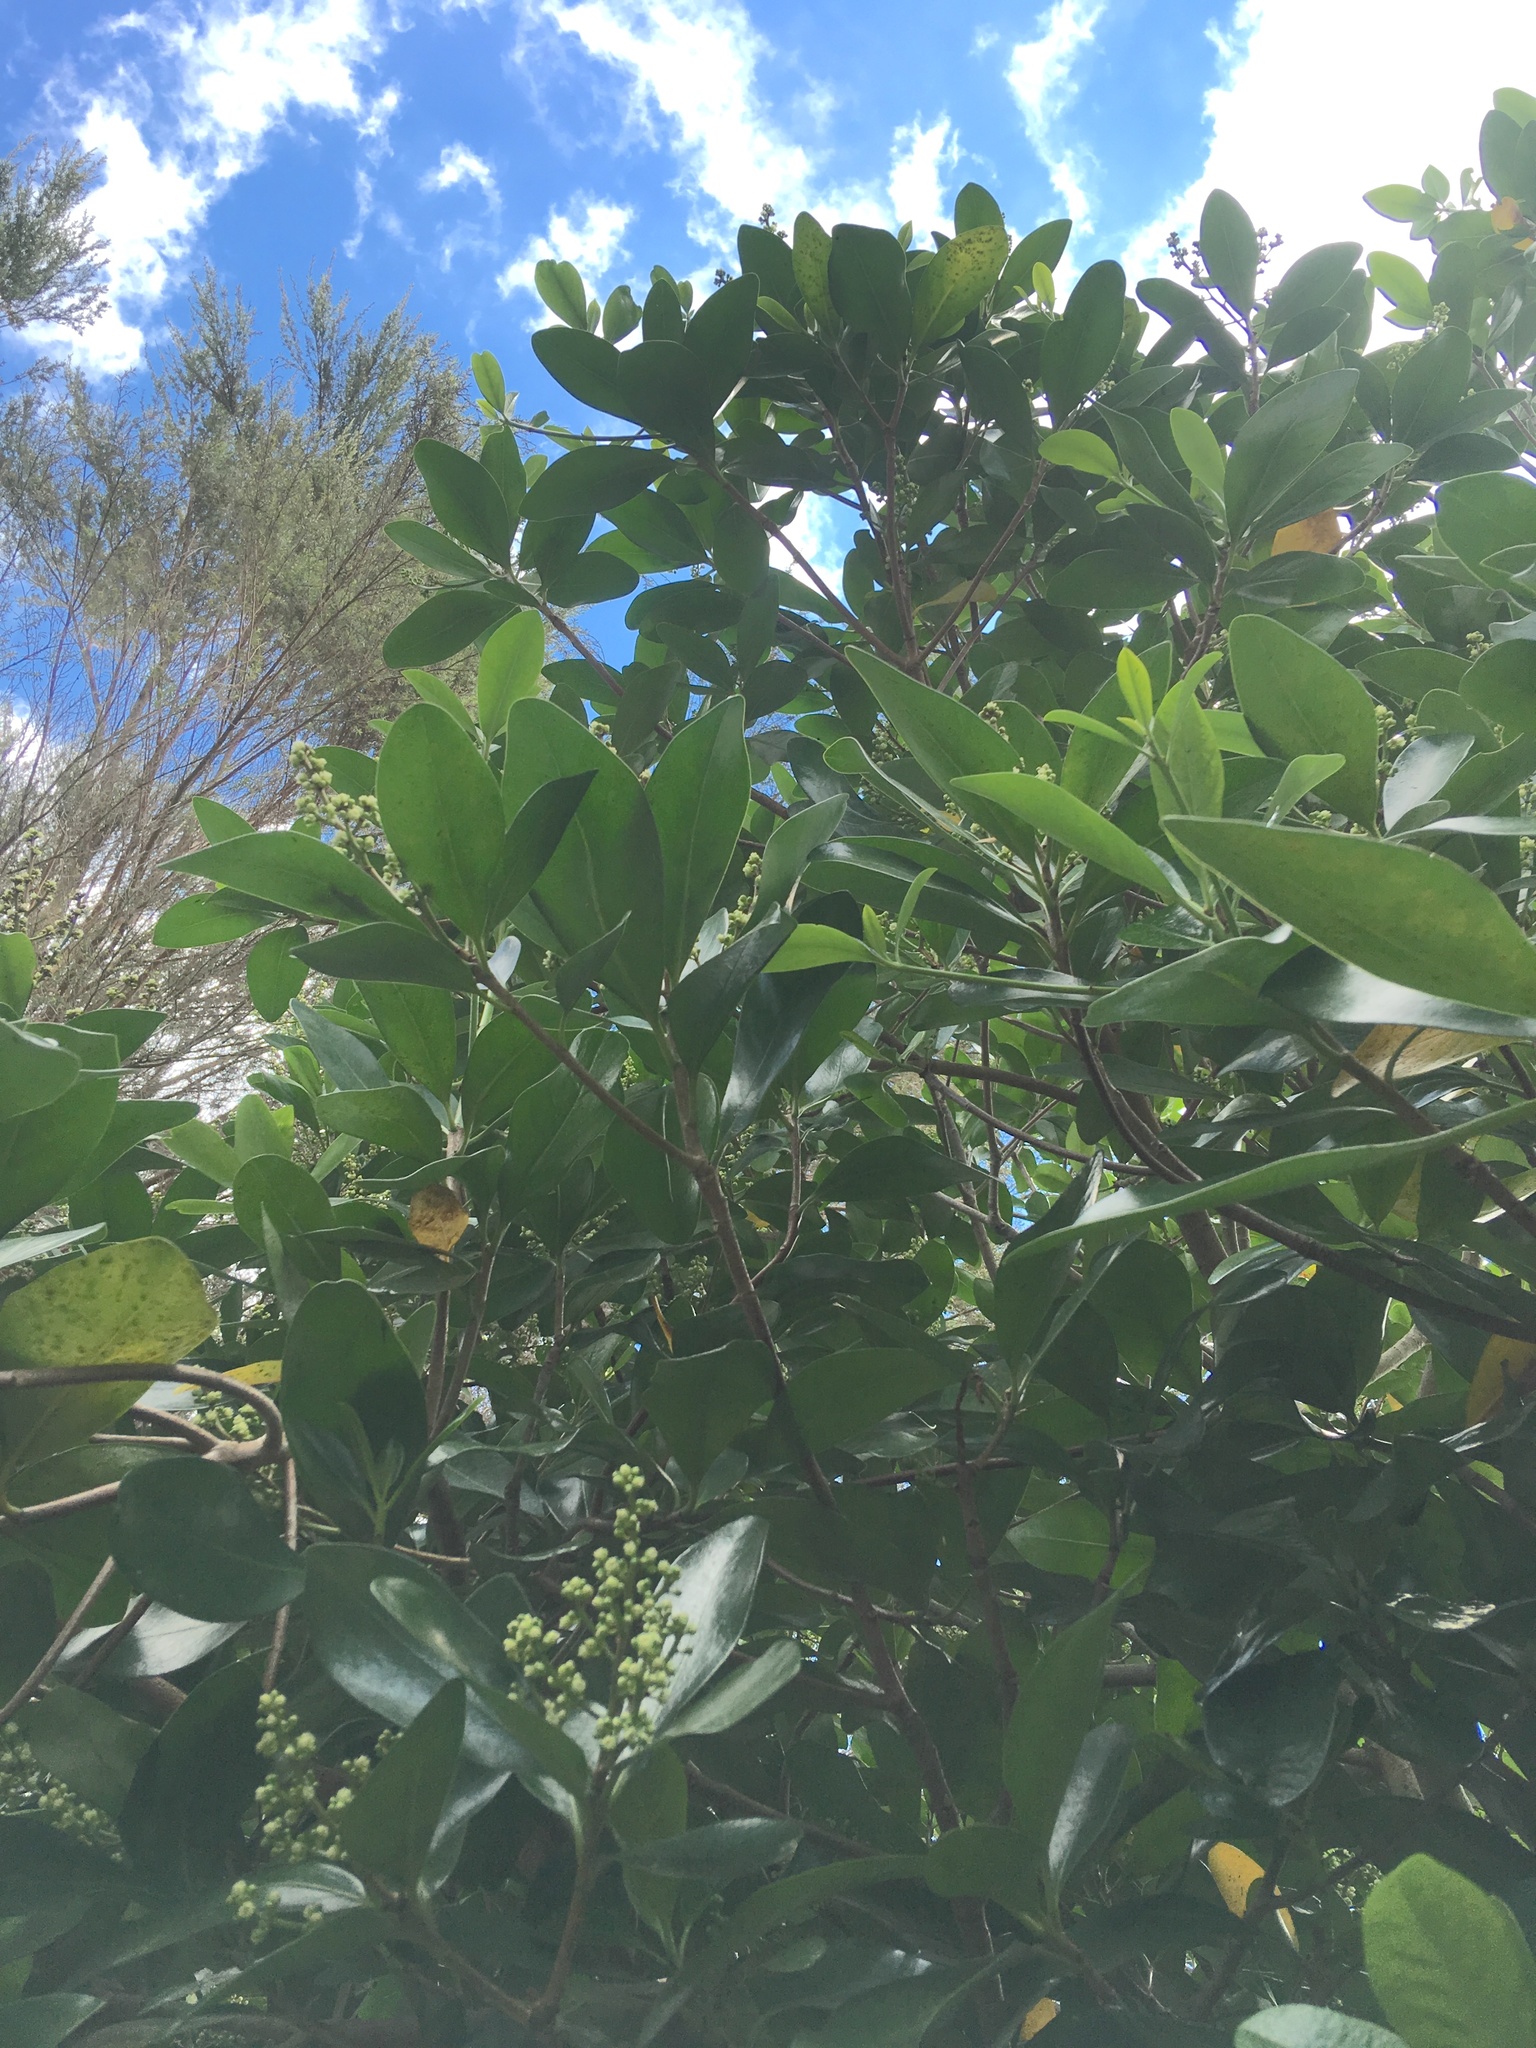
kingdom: Plantae
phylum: Tracheophyta
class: Magnoliopsida
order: Cucurbitales
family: Corynocarpaceae
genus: Corynocarpus
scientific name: Corynocarpus laevigatus
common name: New zealand laurel
